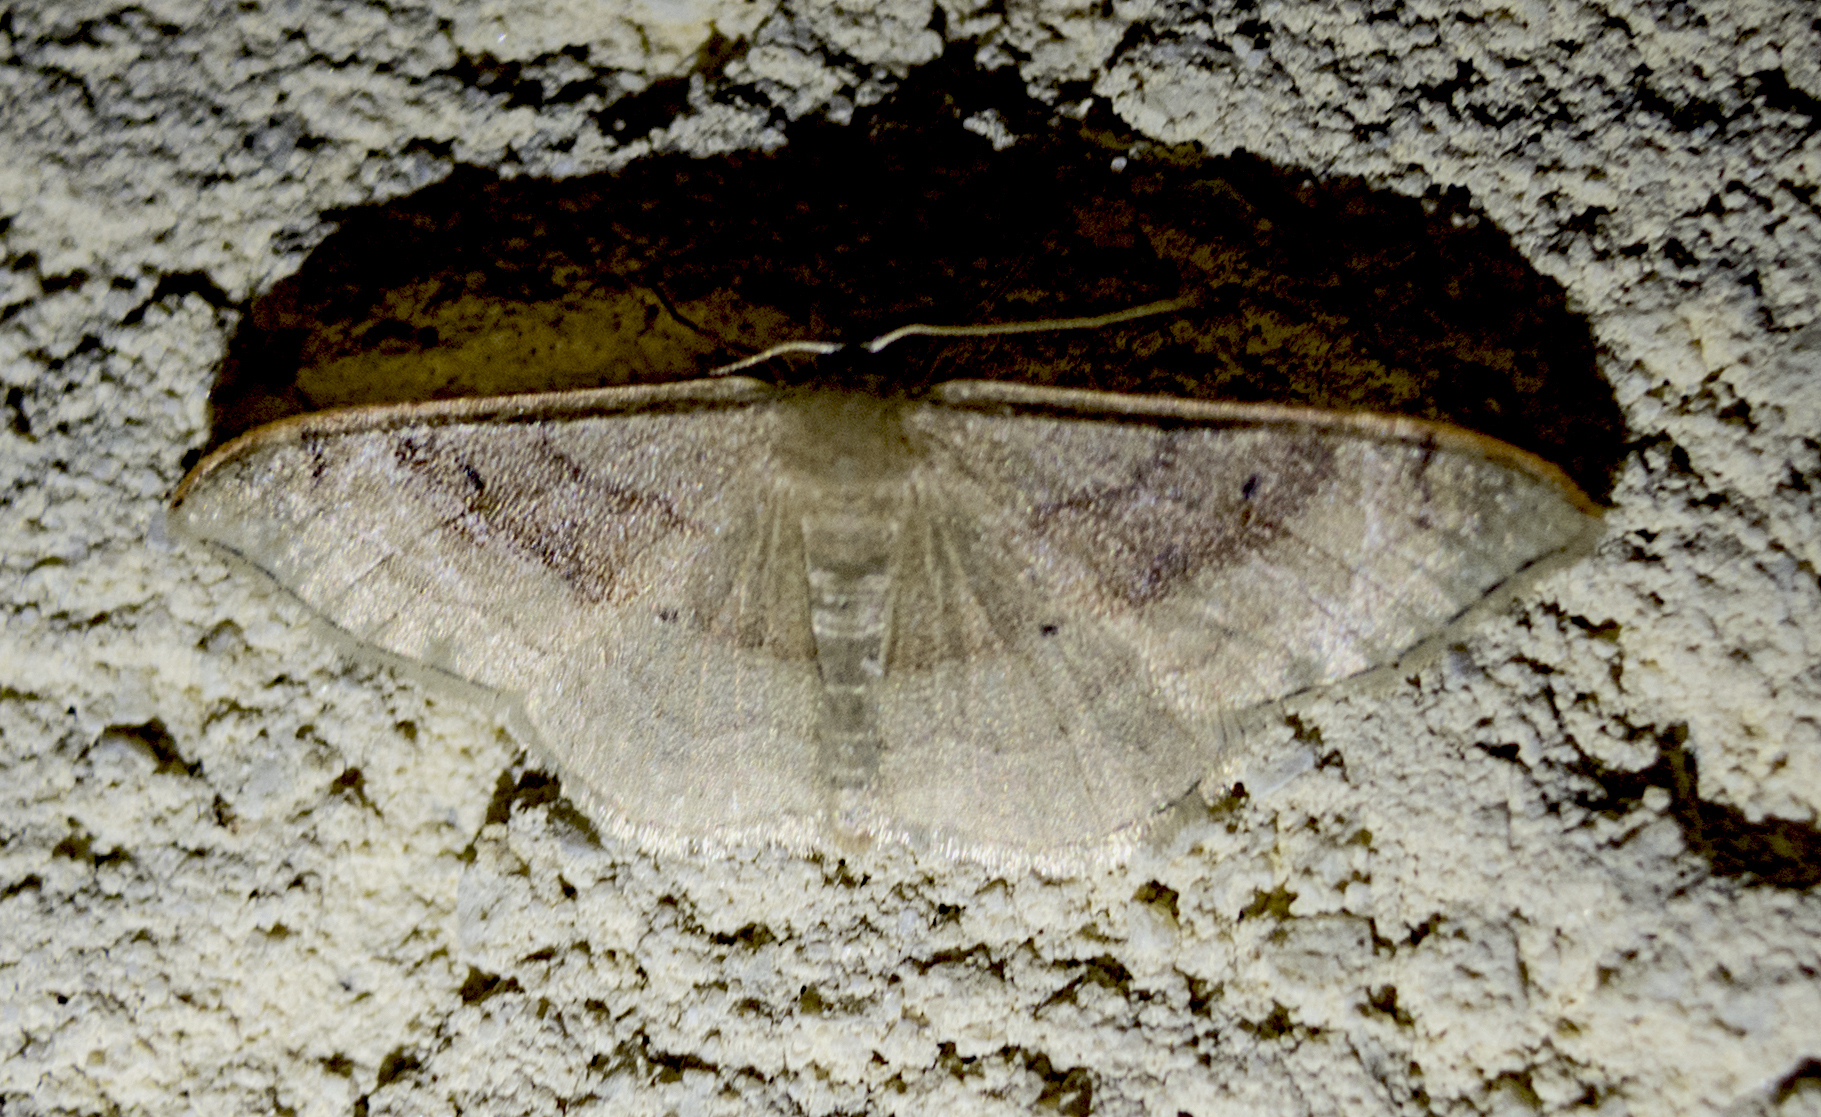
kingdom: Animalia
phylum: Arthropoda
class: Insecta
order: Lepidoptera
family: Geometridae
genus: Idaea
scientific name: Idaea degeneraria
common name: Portland ribbon wave
